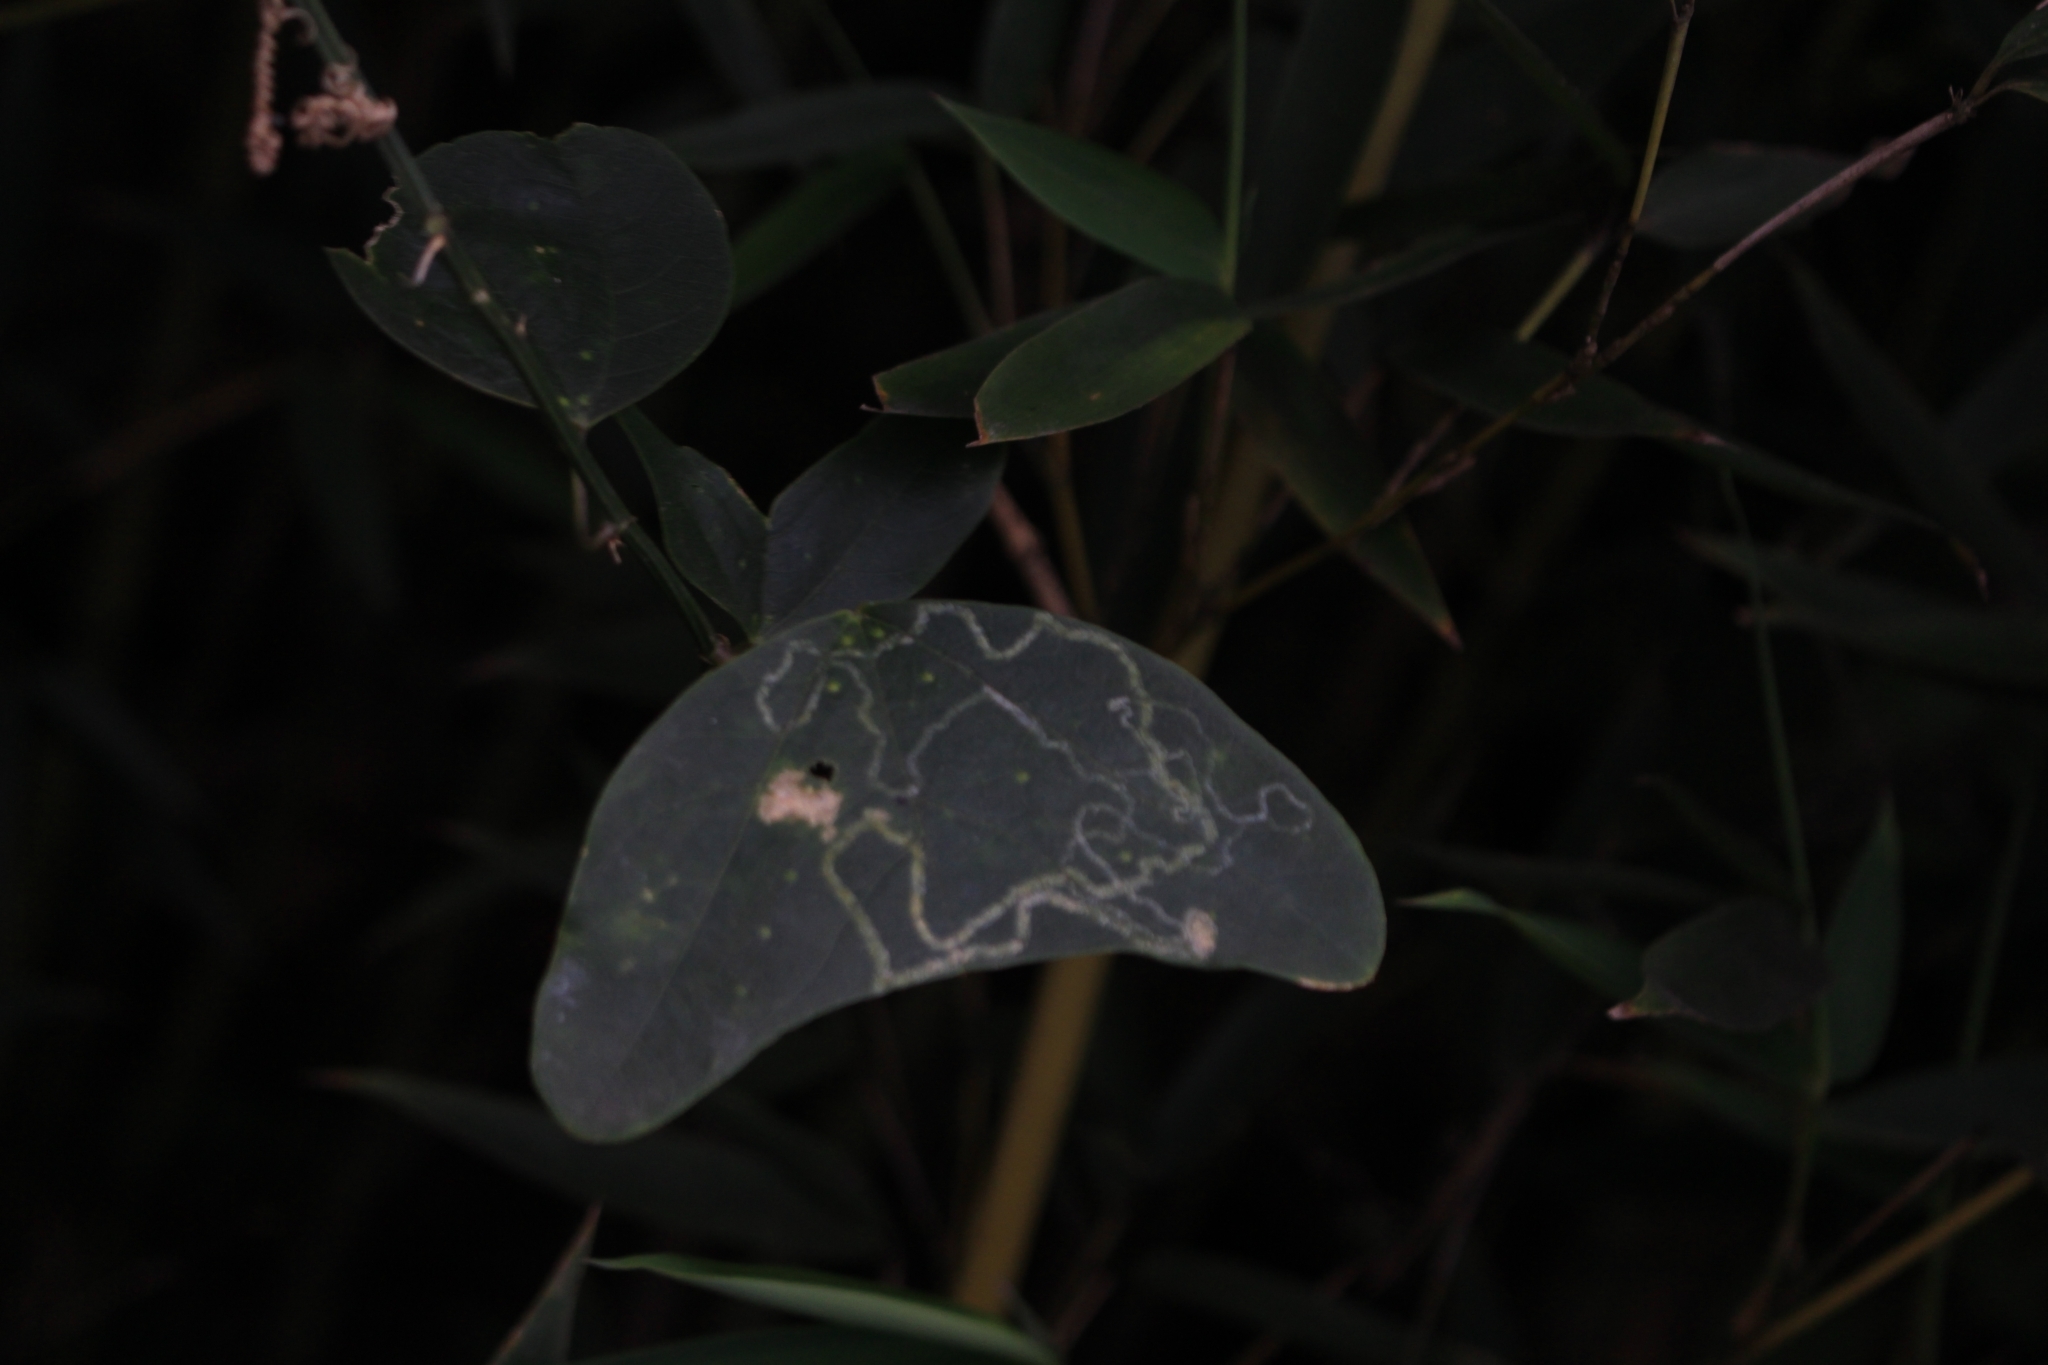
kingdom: Plantae
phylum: Tracheophyta
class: Magnoliopsida
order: Malpighiales
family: Passifloraceae
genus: Passiflora
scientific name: Passiflora biflora
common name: Twoflower passionflower
